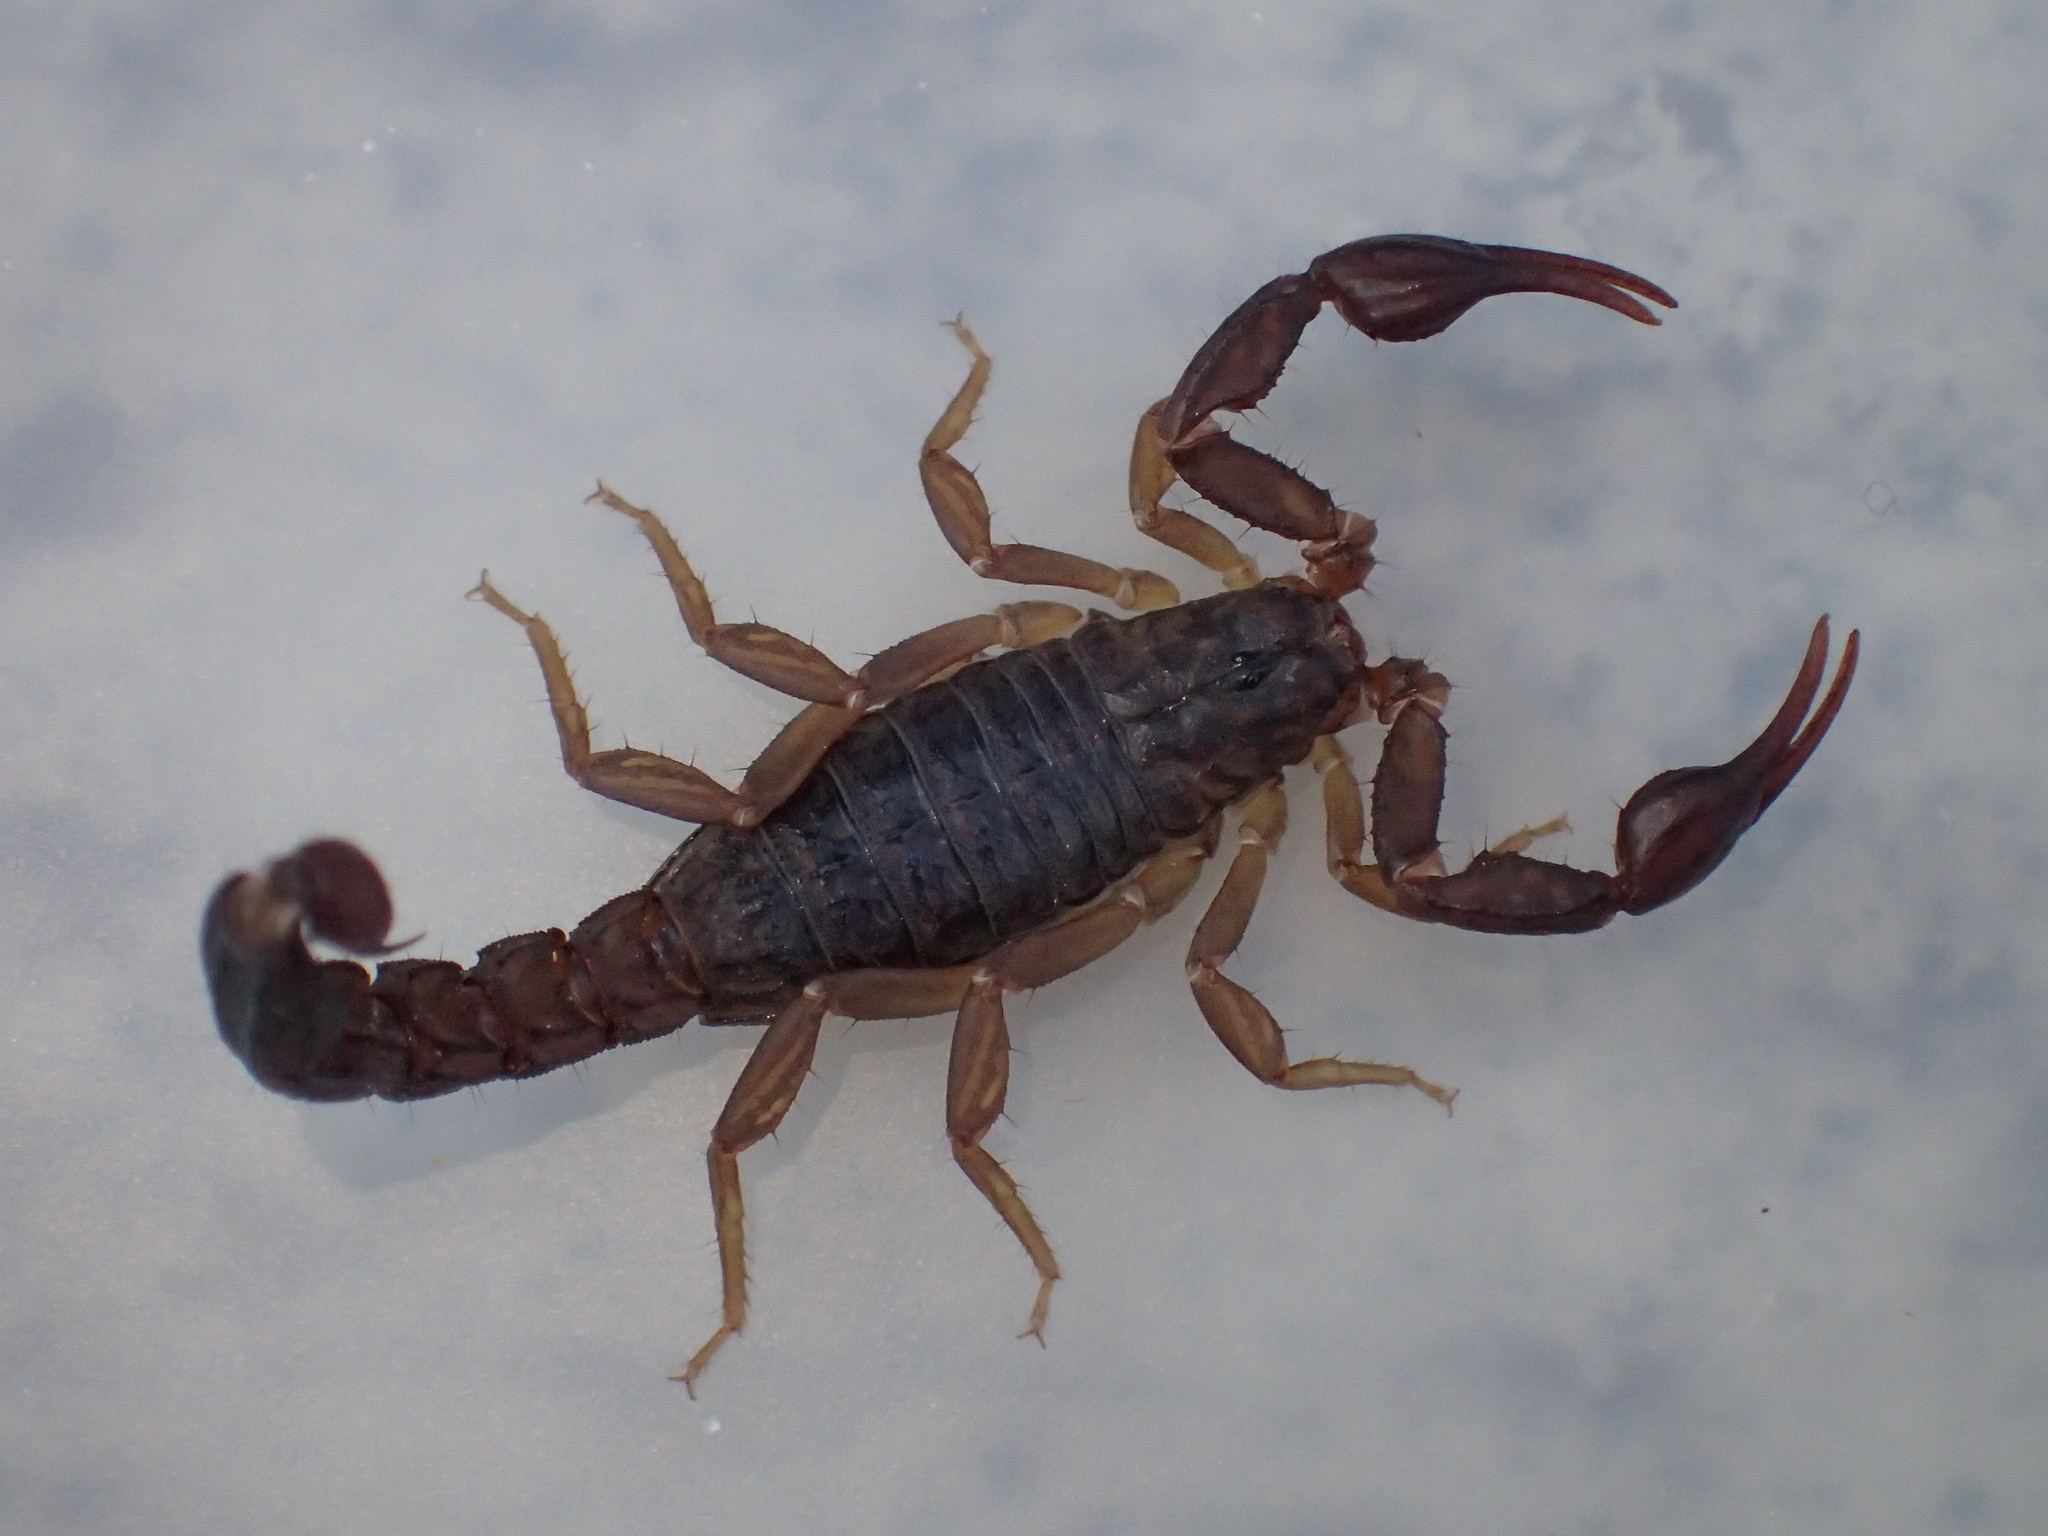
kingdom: Animalia
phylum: Arthropoda
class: Arachnida
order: Scorpiones
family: Vaejovidae
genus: Vaejovis
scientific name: Vaejovis carolinianus
